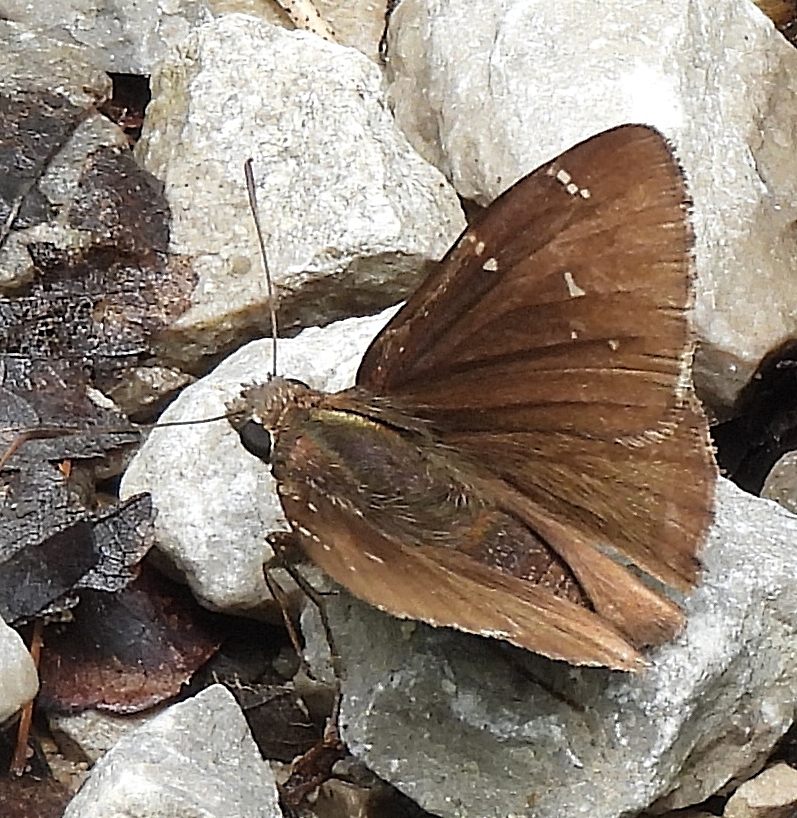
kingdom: Animalia
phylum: Arthropoda
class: Insecta
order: Lepidoptera
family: Hesperiidae
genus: Thorybes
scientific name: Thorybes pylades
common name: Northern cloudywing
